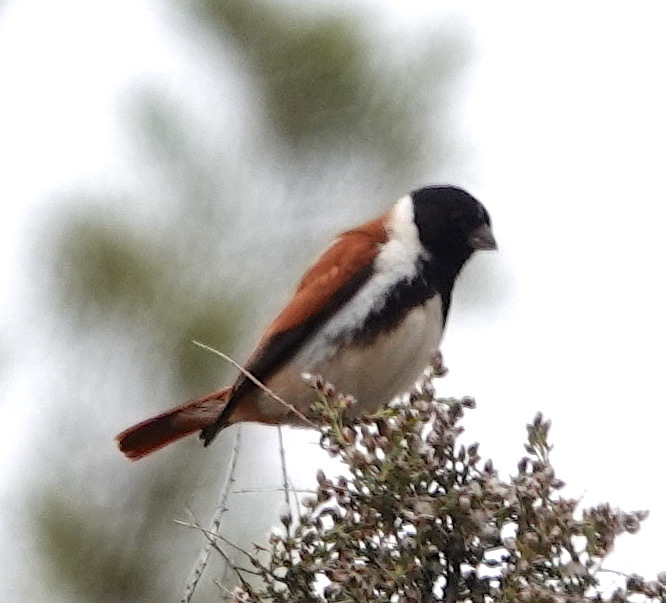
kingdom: Animalia
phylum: Chordata
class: Aves
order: Passeriformes
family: Fringillidae
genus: Serinus
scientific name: Serinus alario
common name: Black-headed canary
